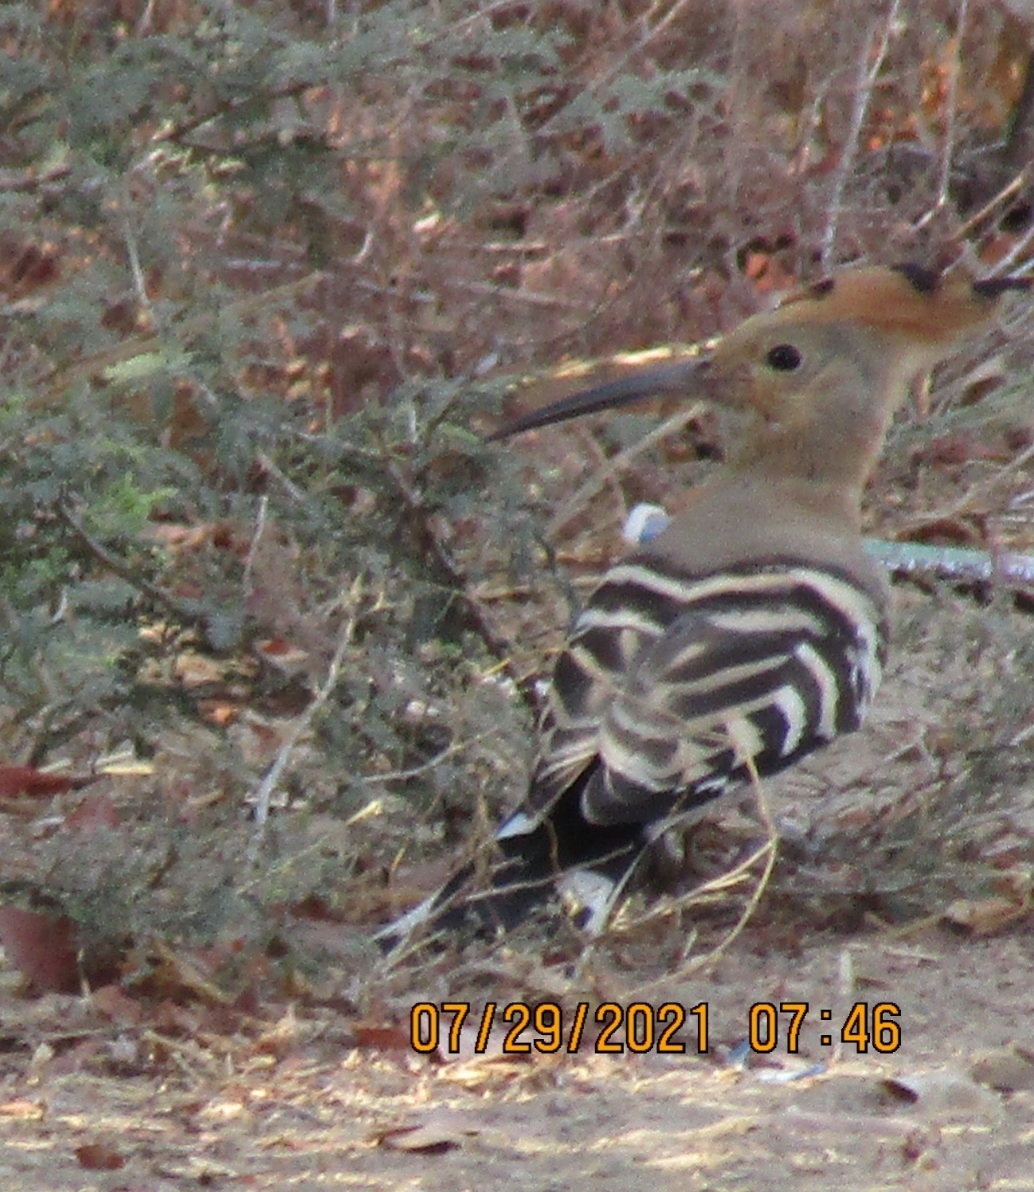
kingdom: Animalia
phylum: Chordata
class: Aves
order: Bucerotiformes
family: Upupidae
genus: Upupa
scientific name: Upupa epops
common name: Eurasian hoopoe
